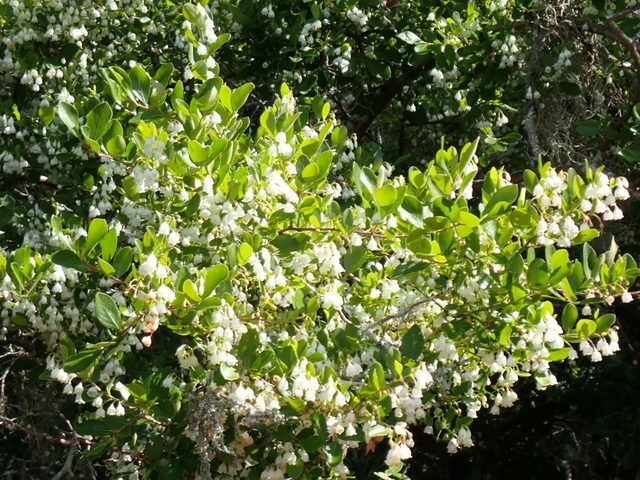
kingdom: Plantae
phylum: Tracheophyta
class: Magnoliopsida
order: Ericales
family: Ericaceae
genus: Vaccinium
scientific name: Vaccinium arboreum
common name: Farkleberry
